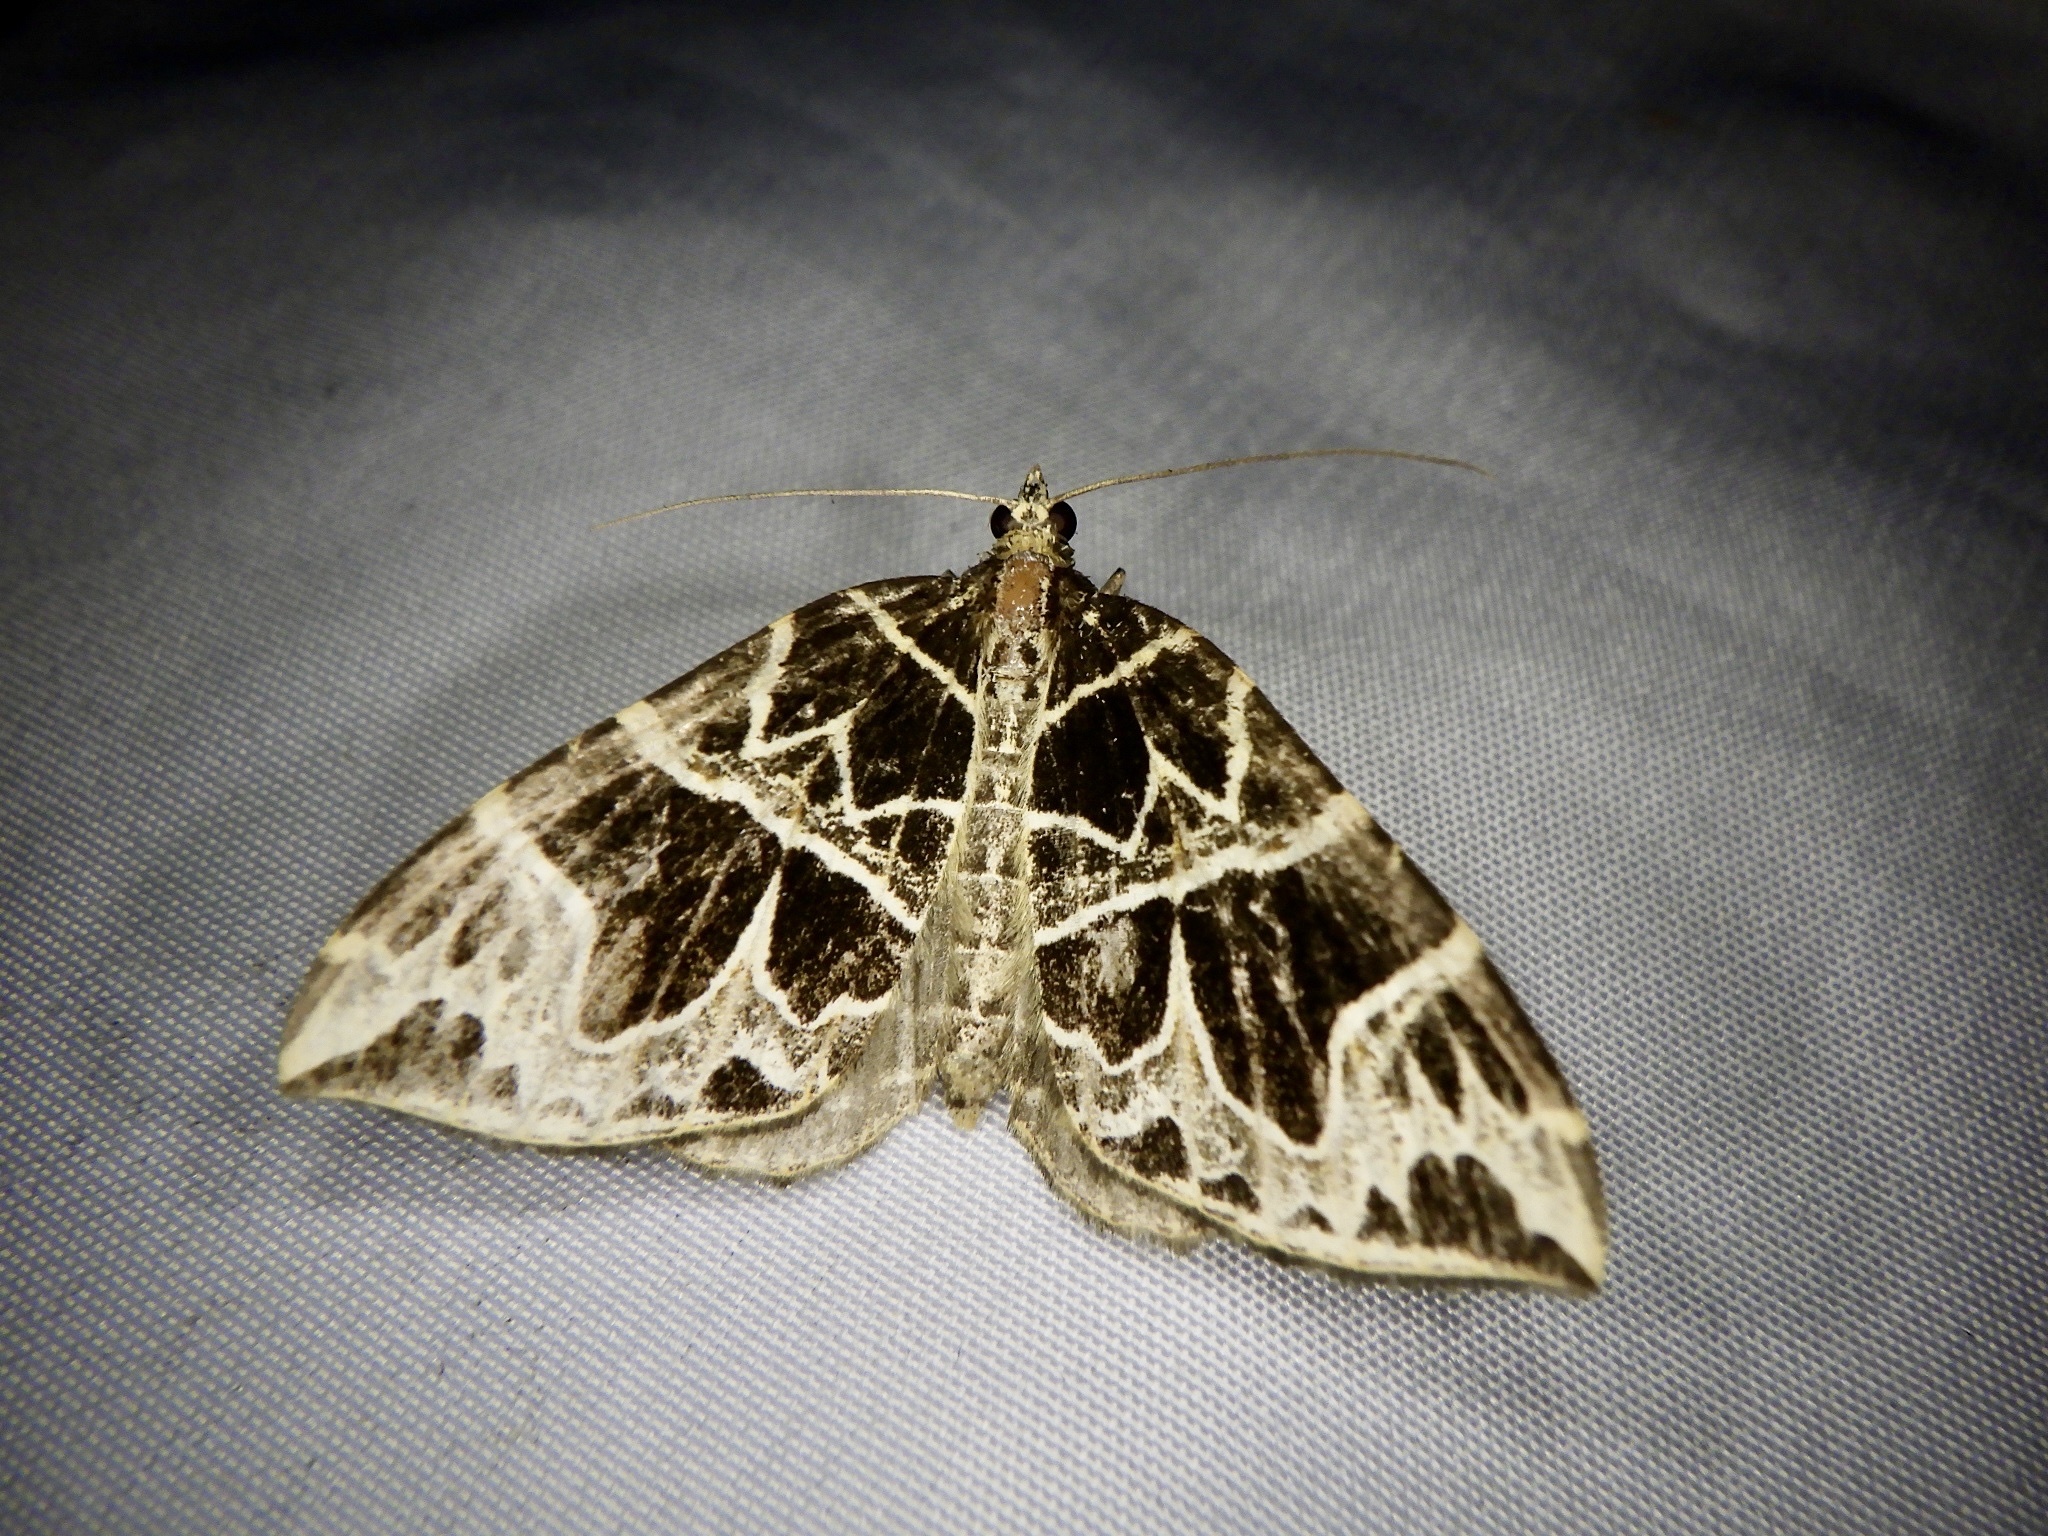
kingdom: Animalia
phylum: Arthropoda
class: Insecta
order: Lepidoptera
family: Geometridae
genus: Sibatania
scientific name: Sibatania mactata
